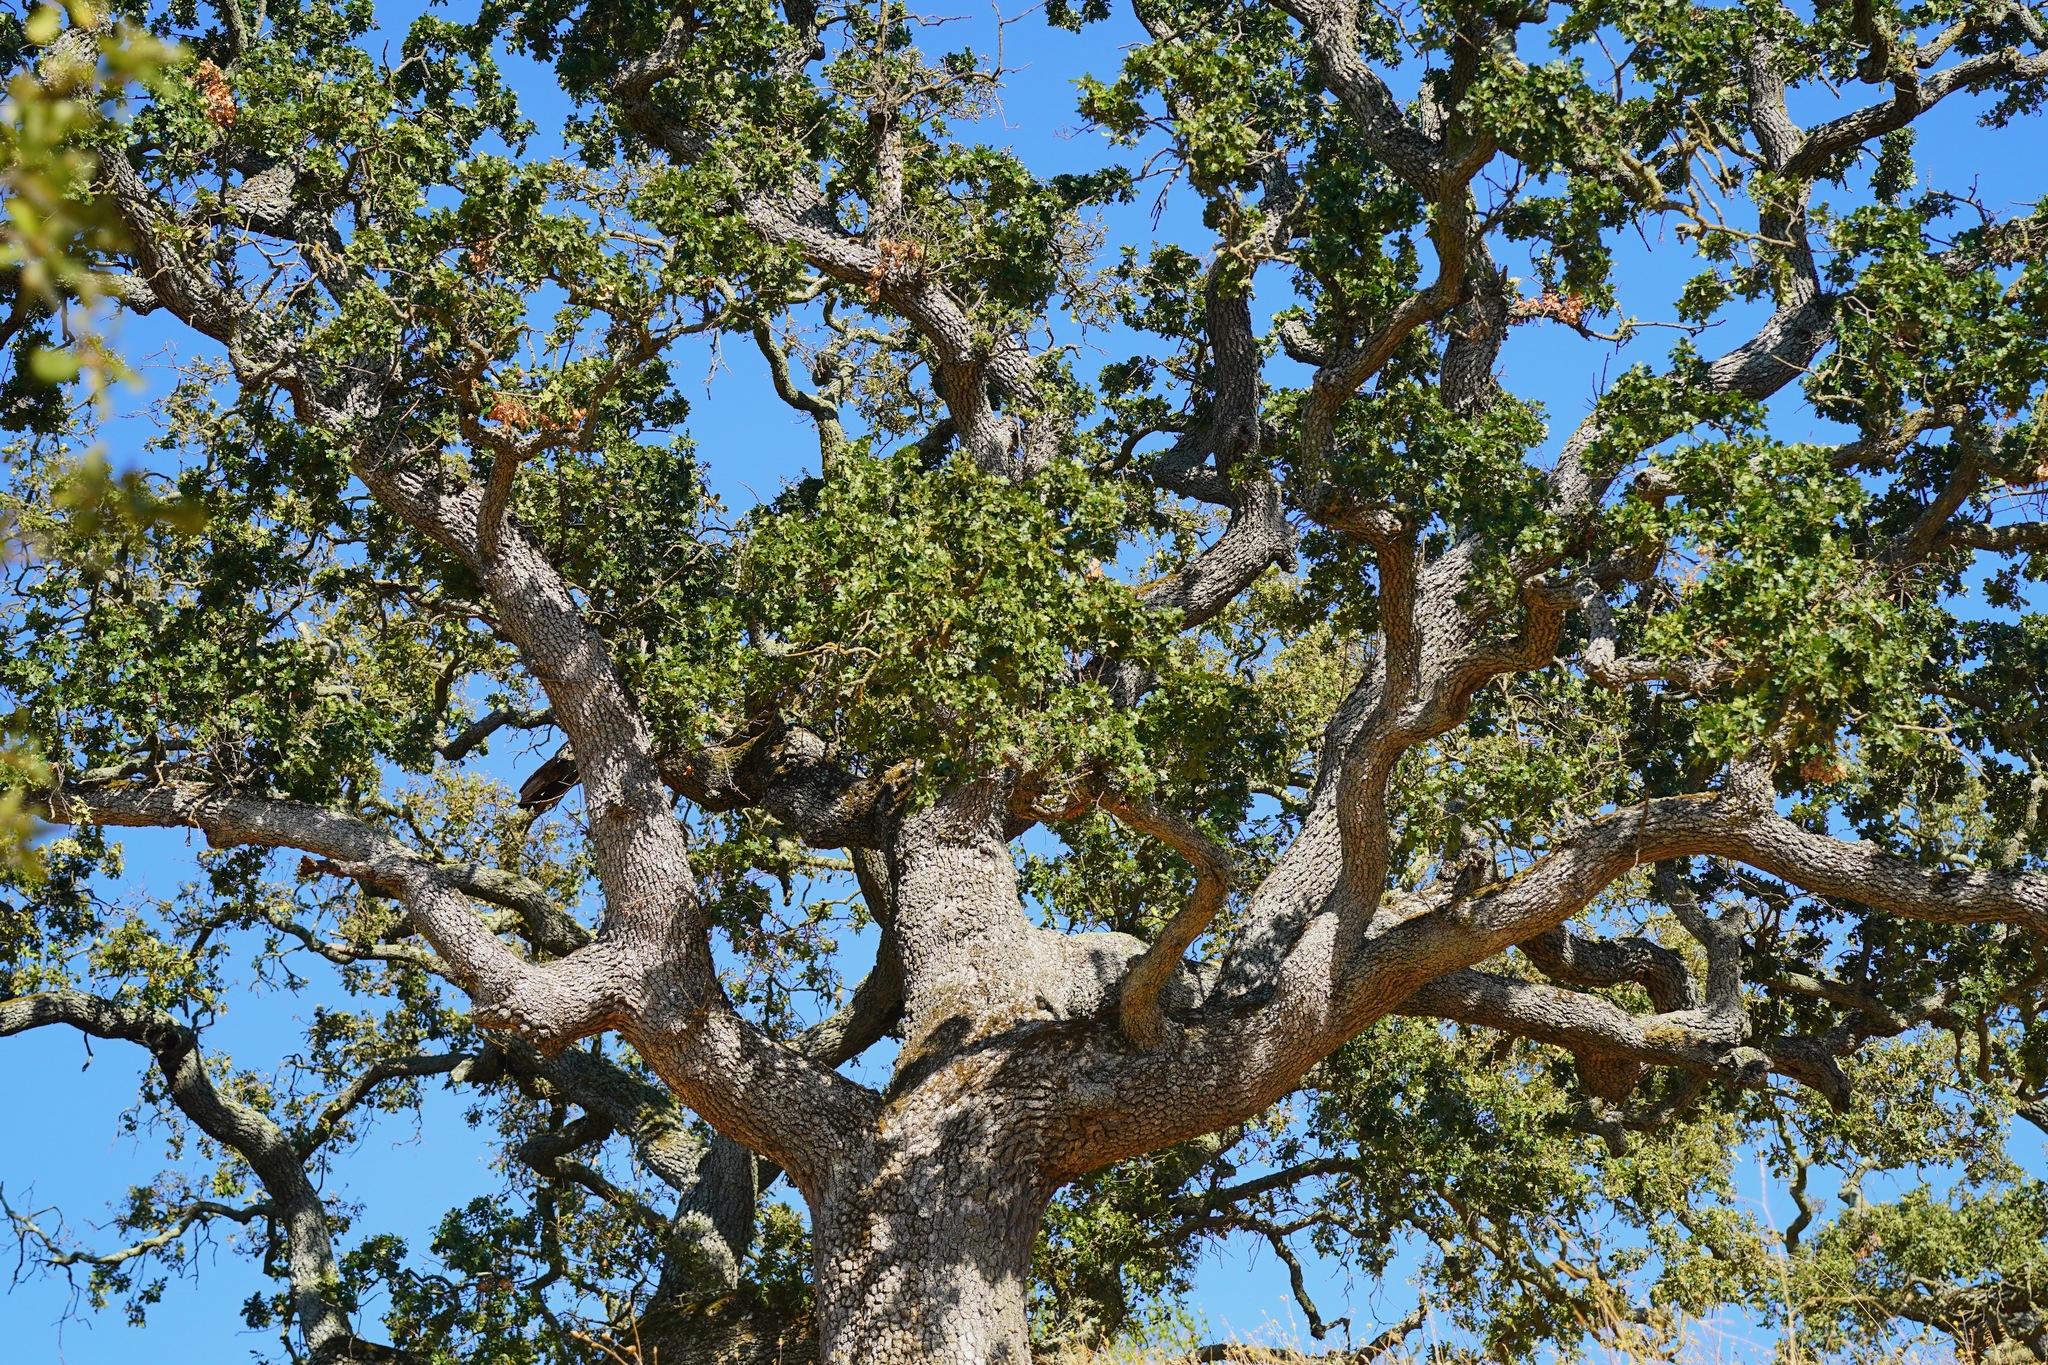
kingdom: Plantae
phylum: Tracheophyta
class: Magnoliopsida
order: Fagales
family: Fagaceae
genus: Quercus
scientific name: Quercus lobata
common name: Valley oak
